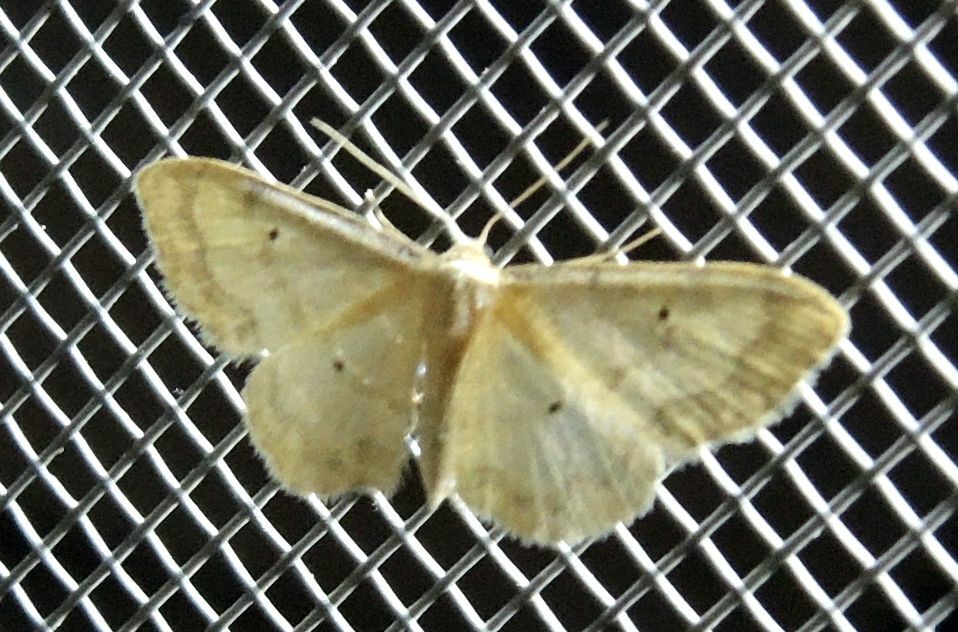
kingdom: Animalia
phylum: Arthropoda
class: Insecta
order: Lepidoptera
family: Geometridae
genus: Idaea
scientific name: Idaea politaria
